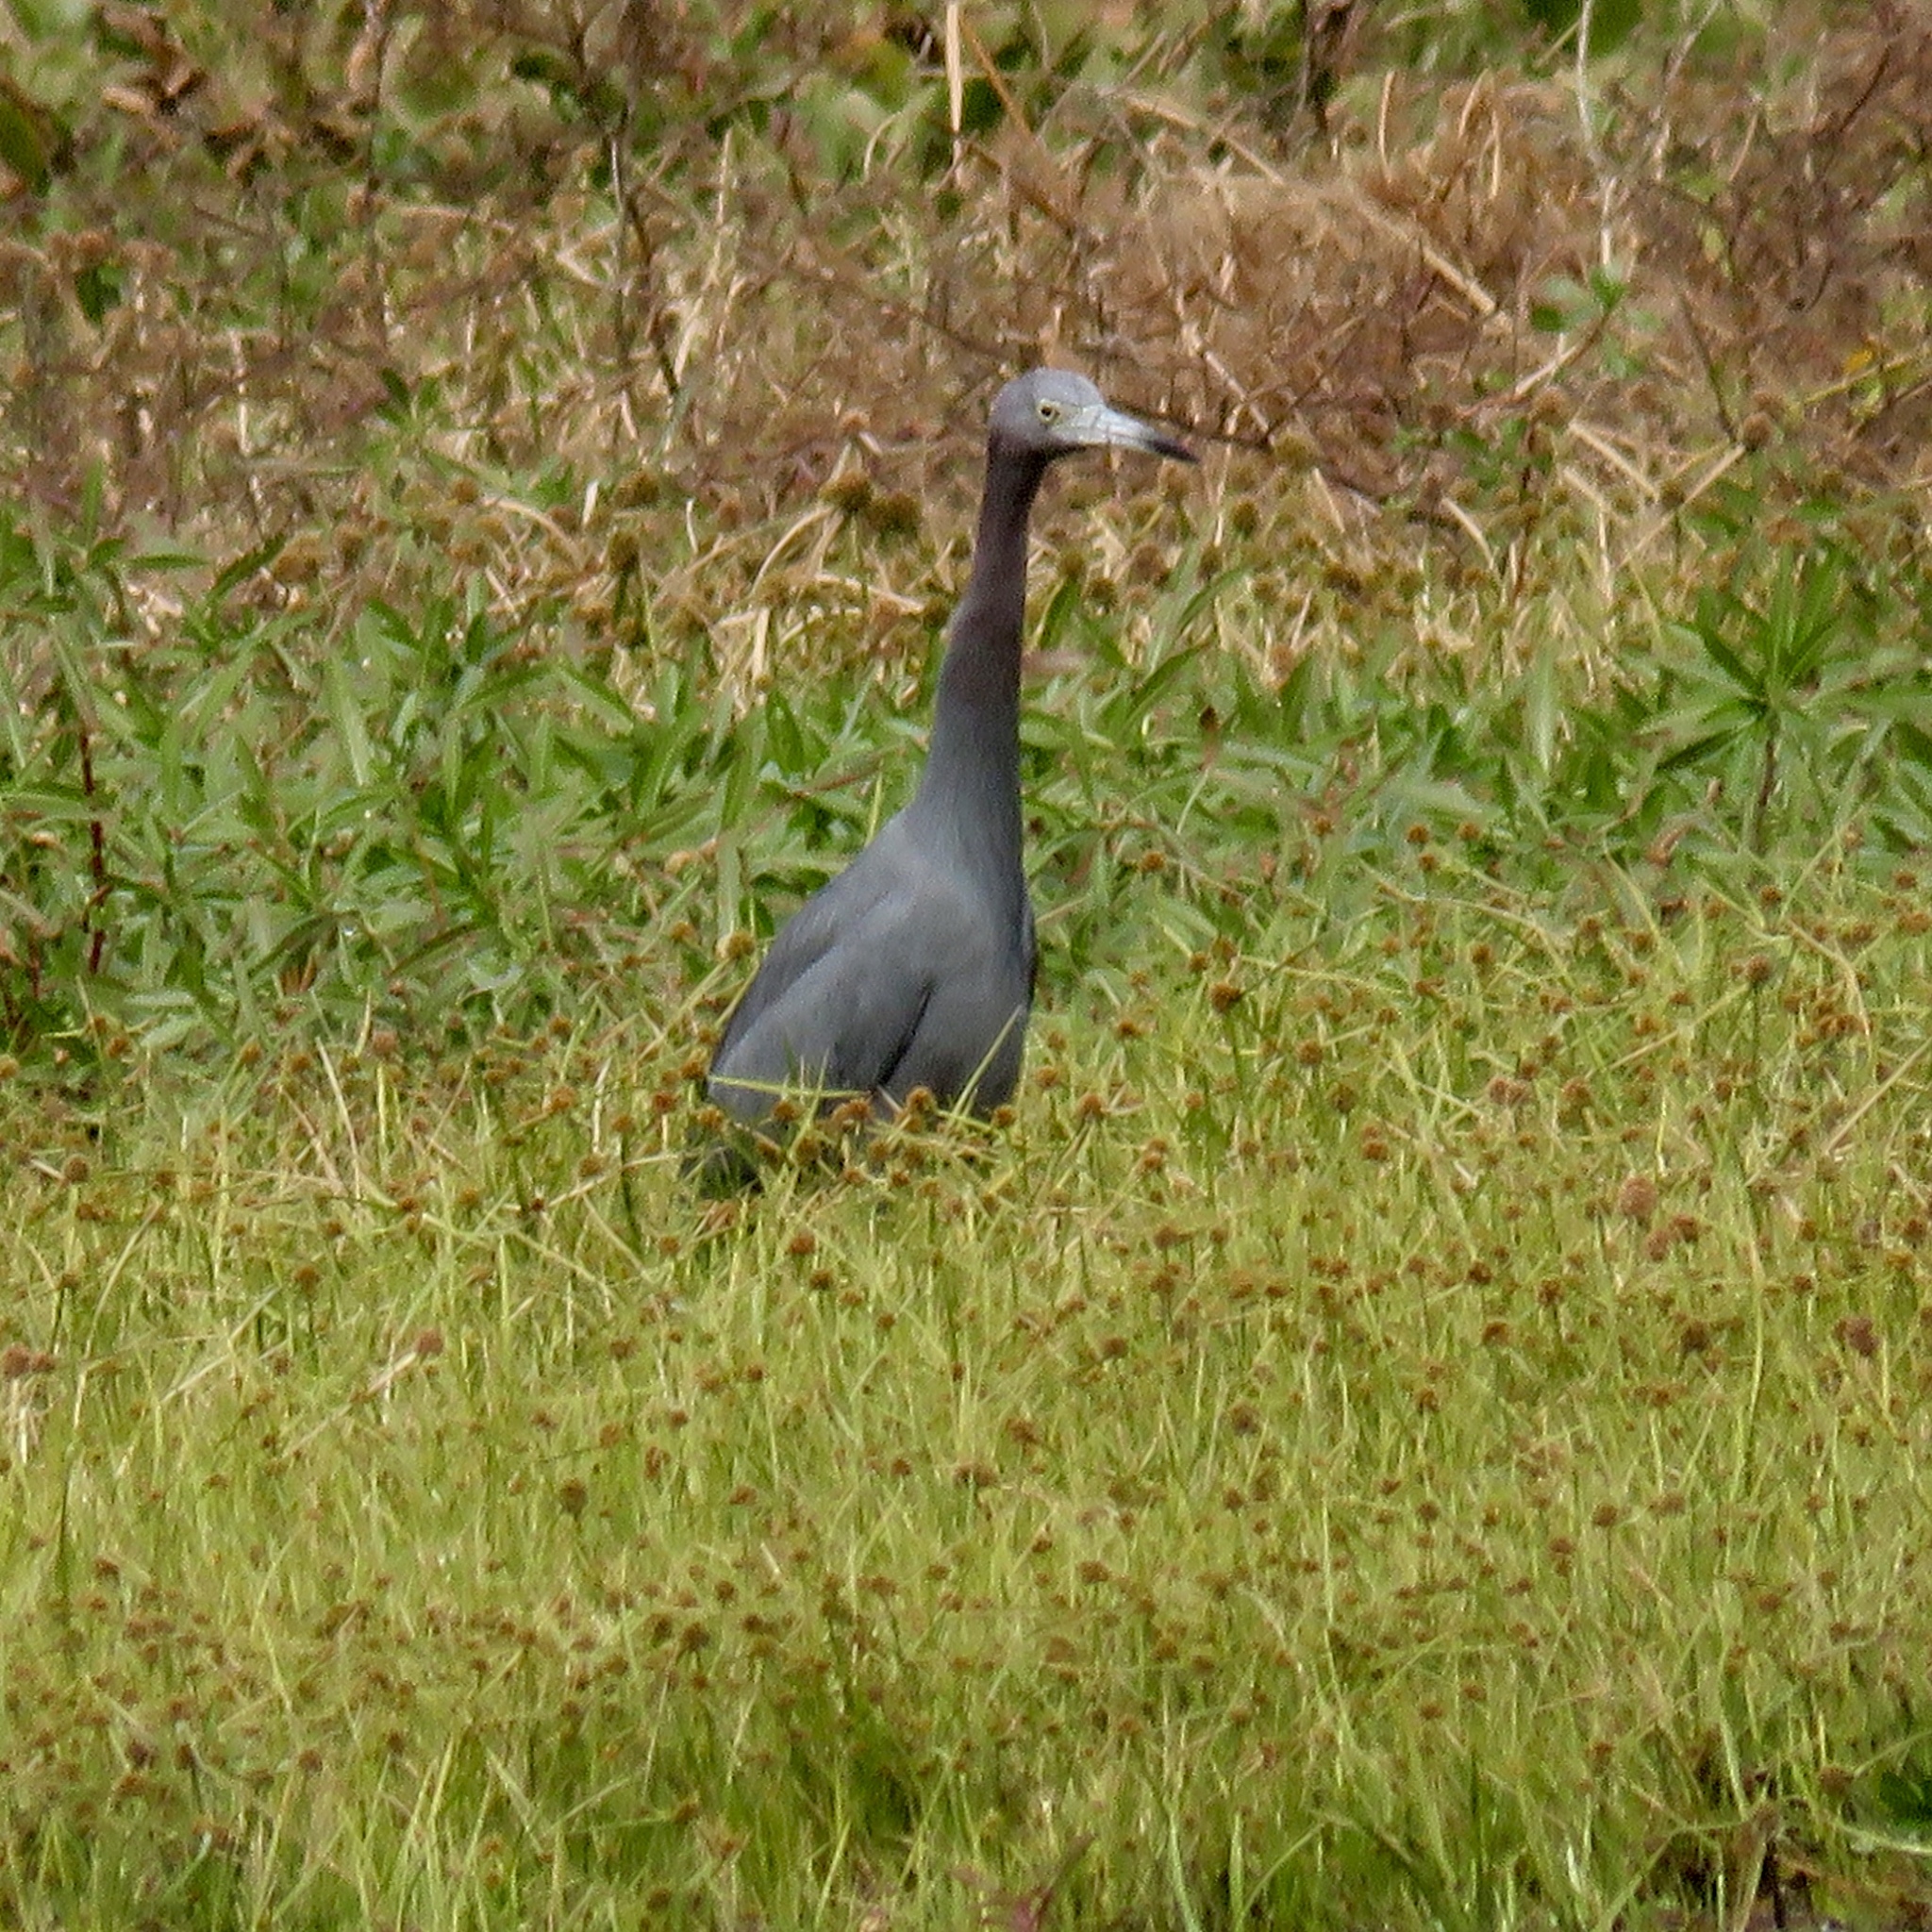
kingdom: Animalia
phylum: Chordata
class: Aves
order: Pelecaniformes
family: Ardeidae
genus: Egretta
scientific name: Egretta caerulea
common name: Little blue heron
